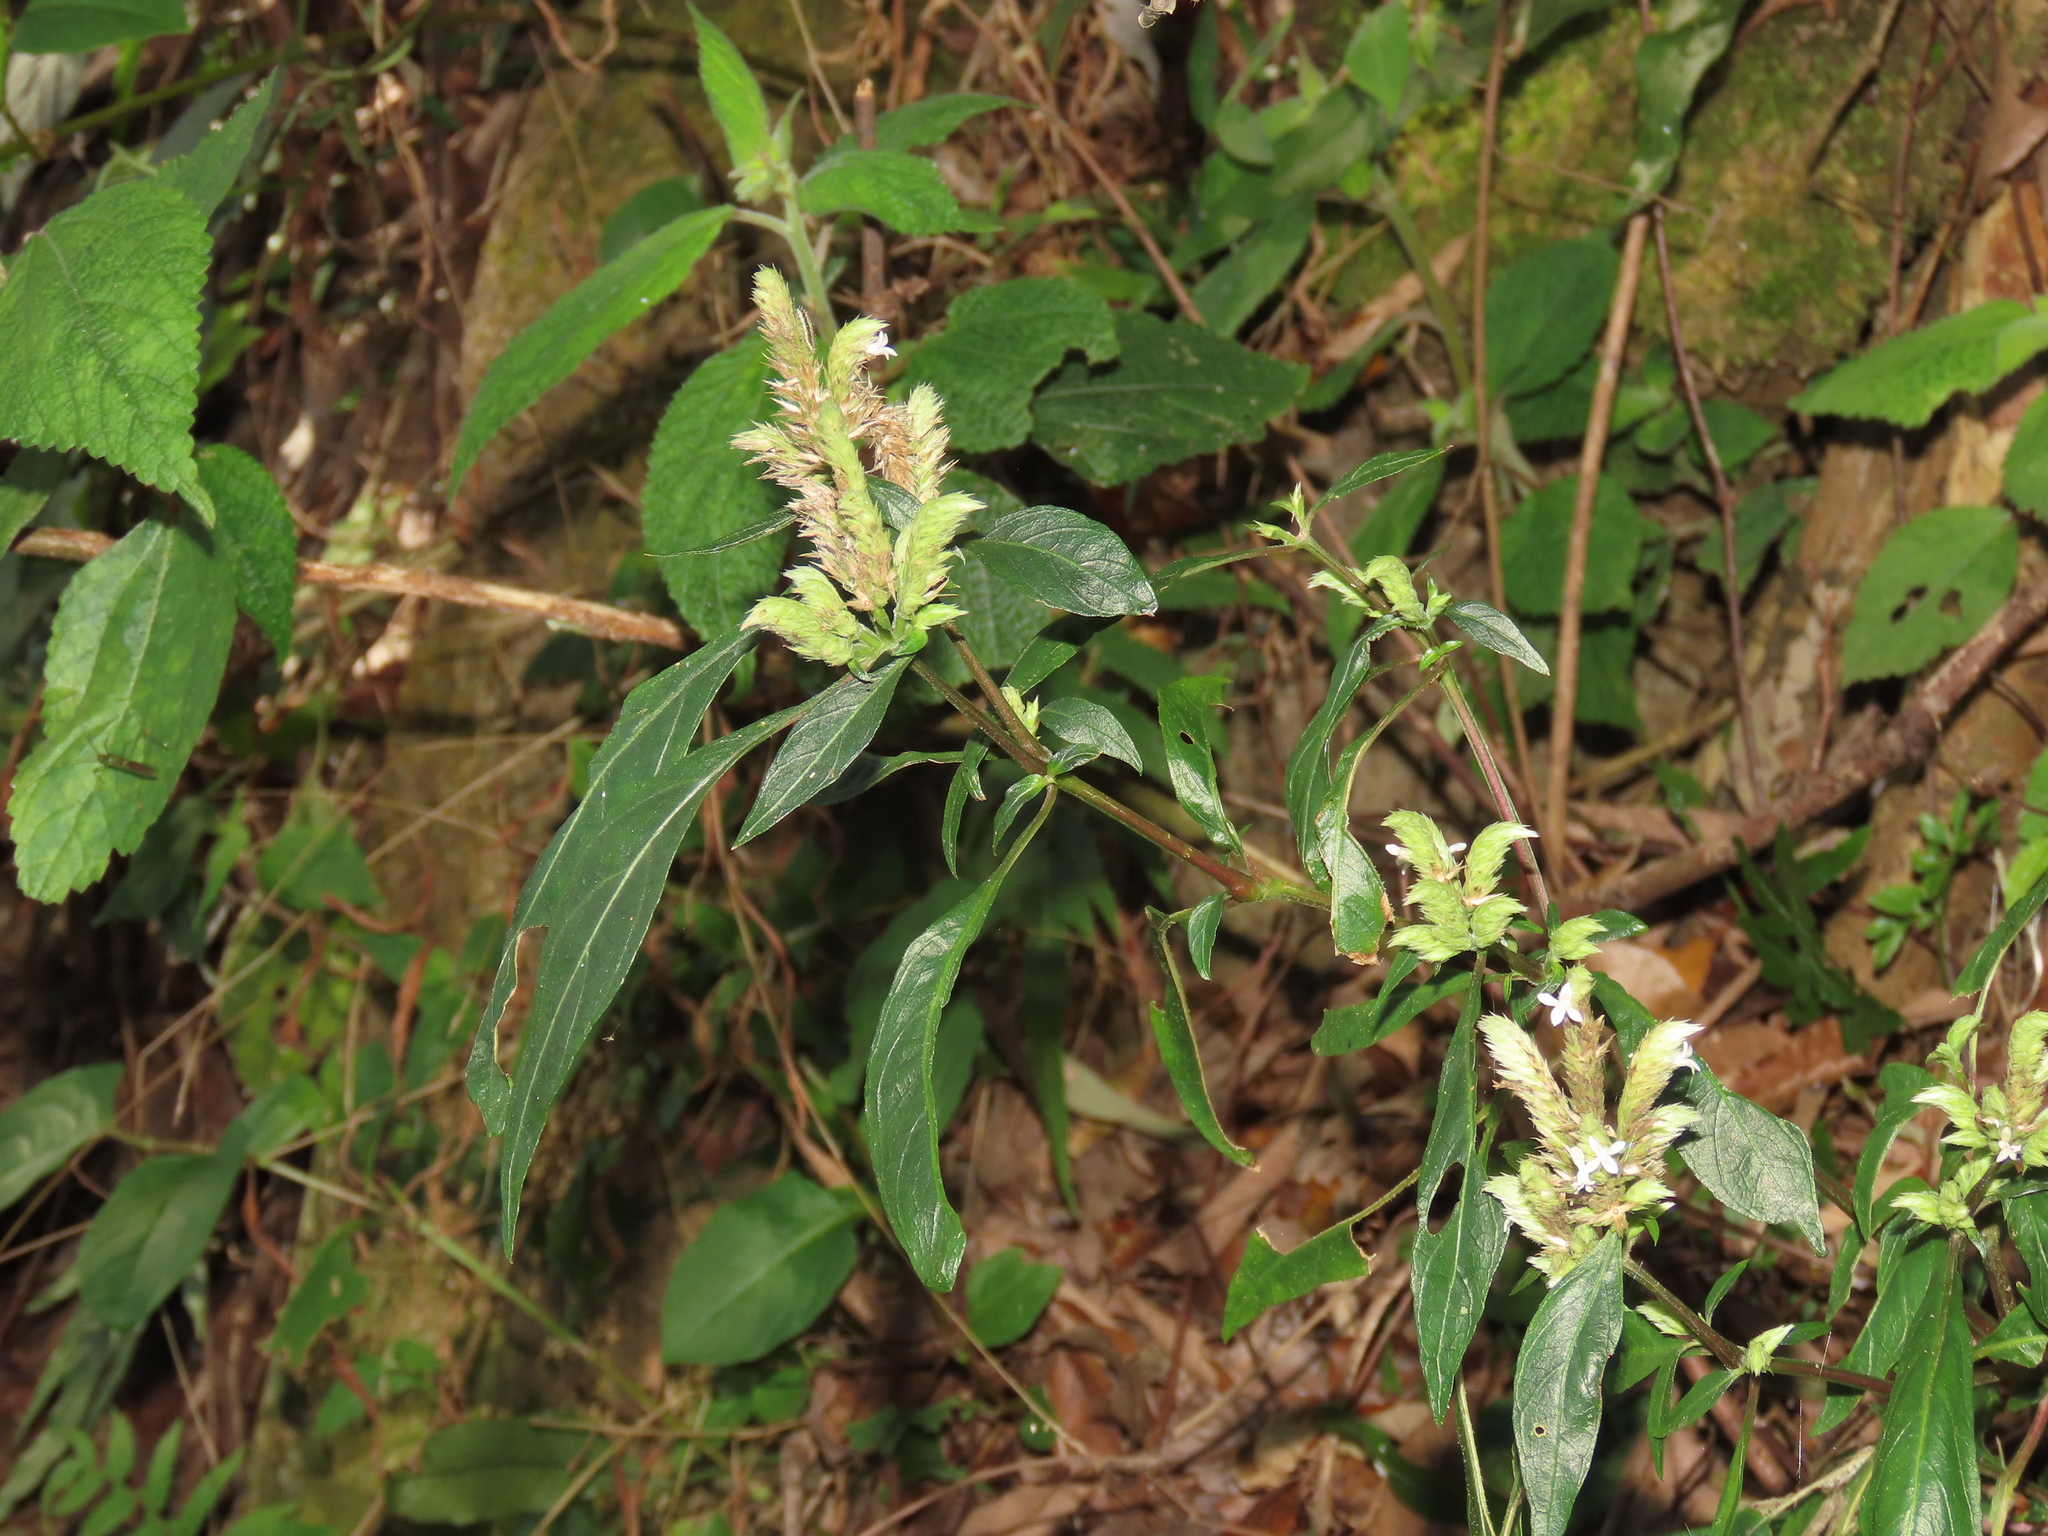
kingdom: Plantae
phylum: Tracheophyta
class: Magnoliopsida
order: Lamiales
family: Acanthaceae
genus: Lepidagathis
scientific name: Lepidagathis formosensis
